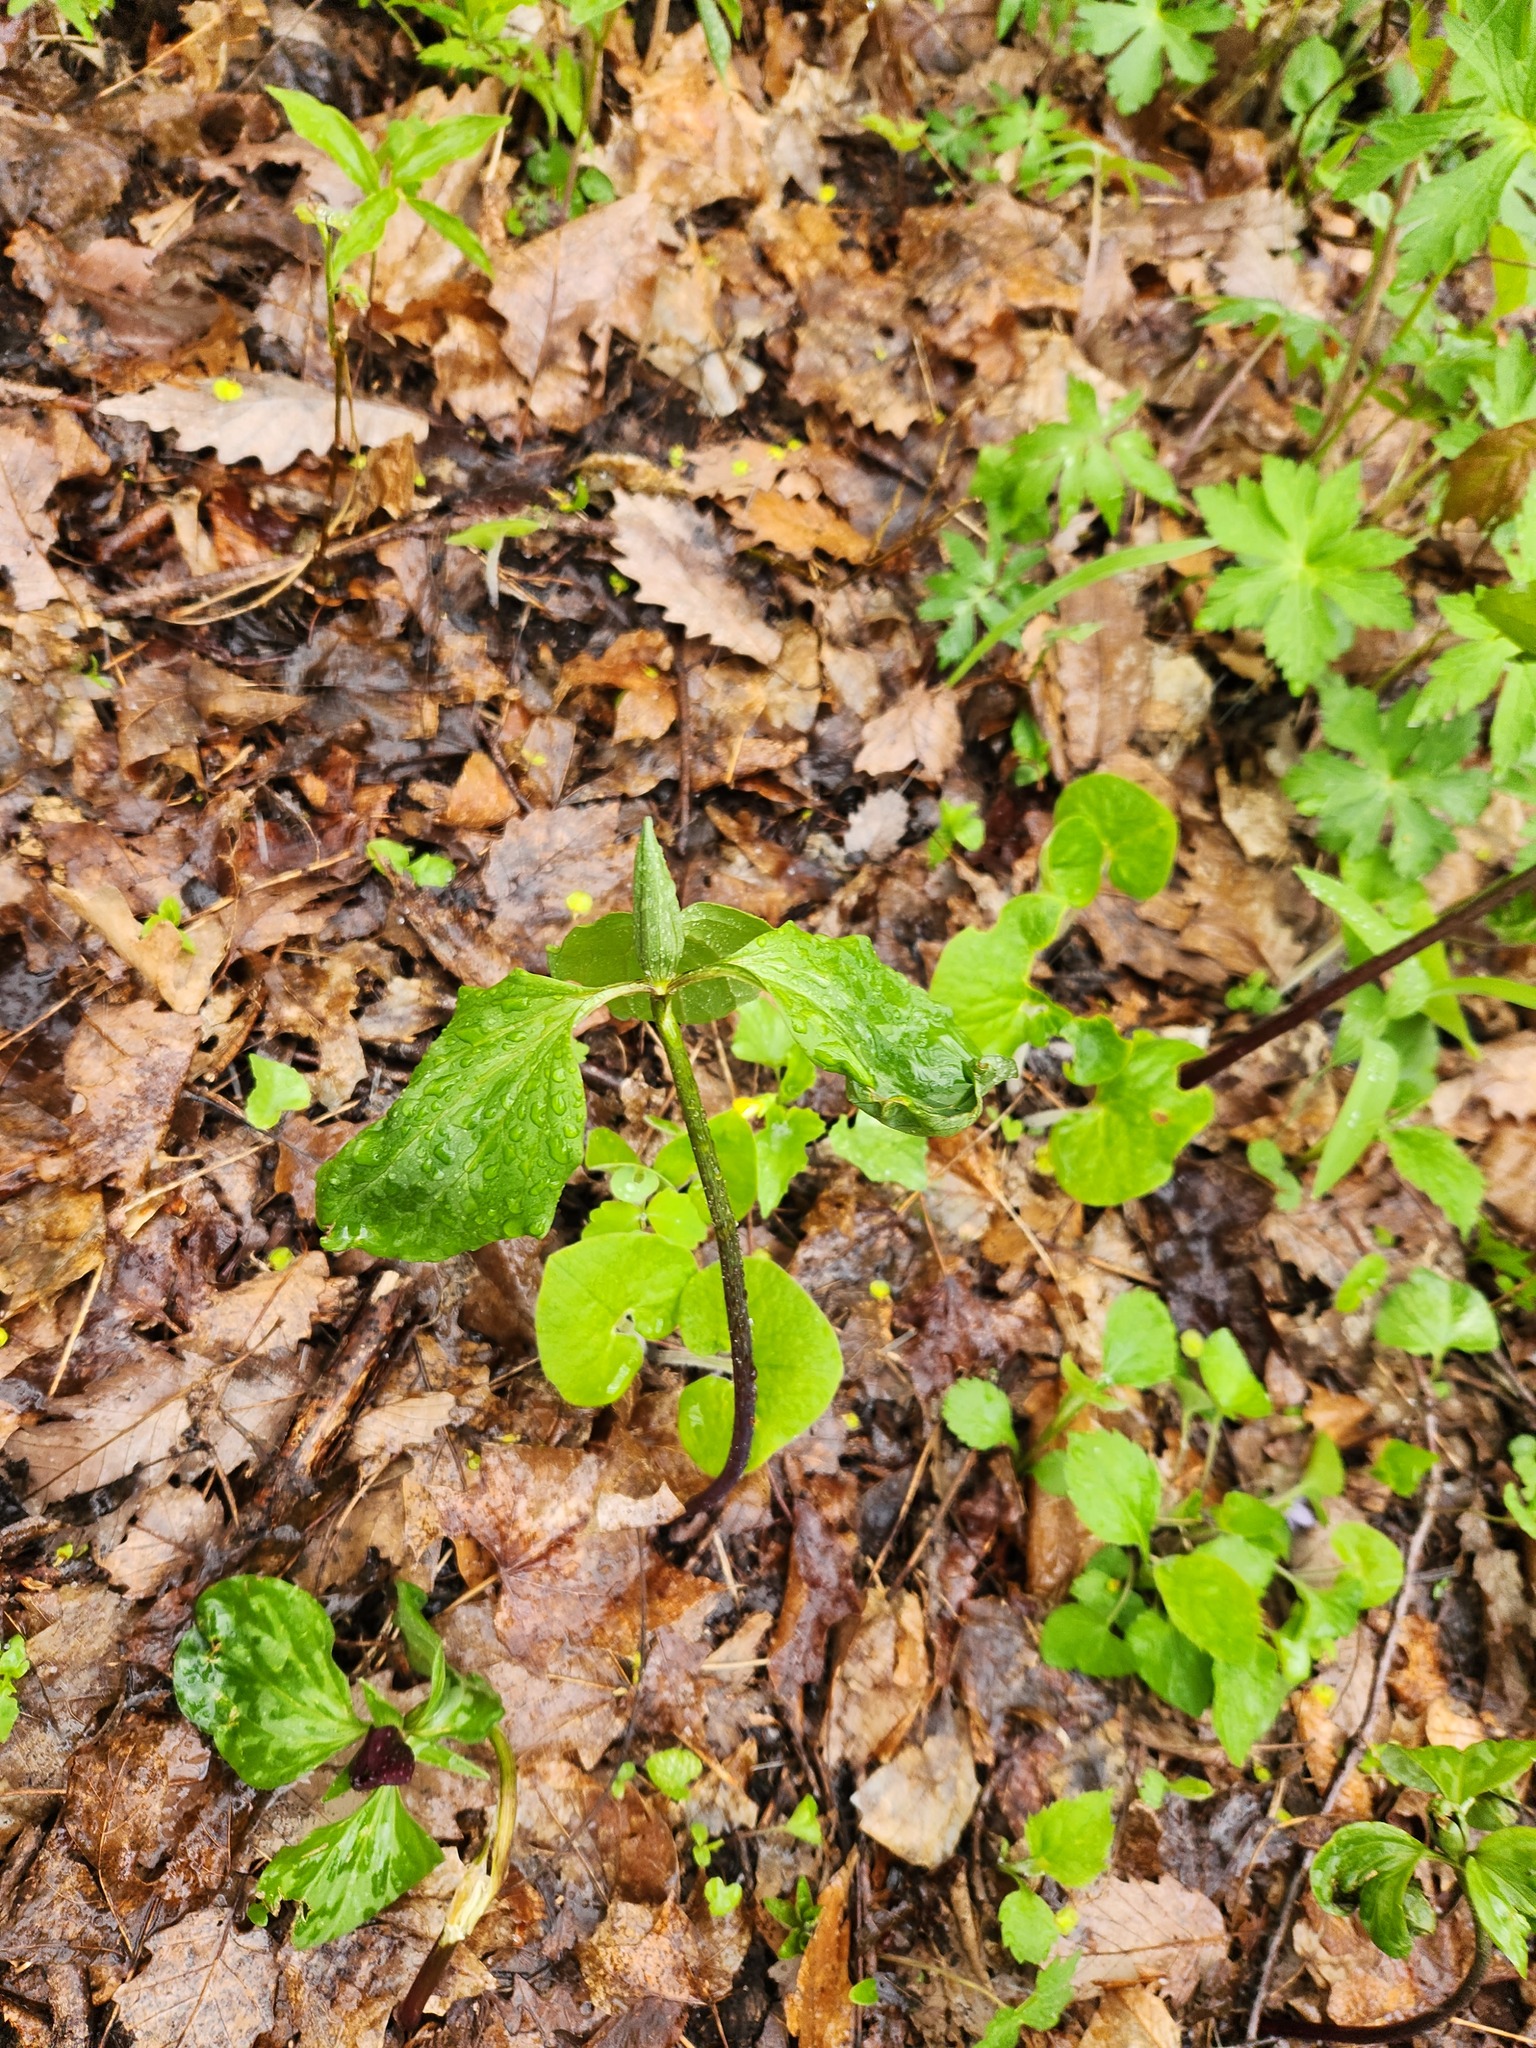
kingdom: Plantae
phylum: Tracheophyta
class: Liliopsida
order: Liliales
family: Melanthiaceae
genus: Trillium
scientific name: Trillium recurvatum
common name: Bloody butcher
